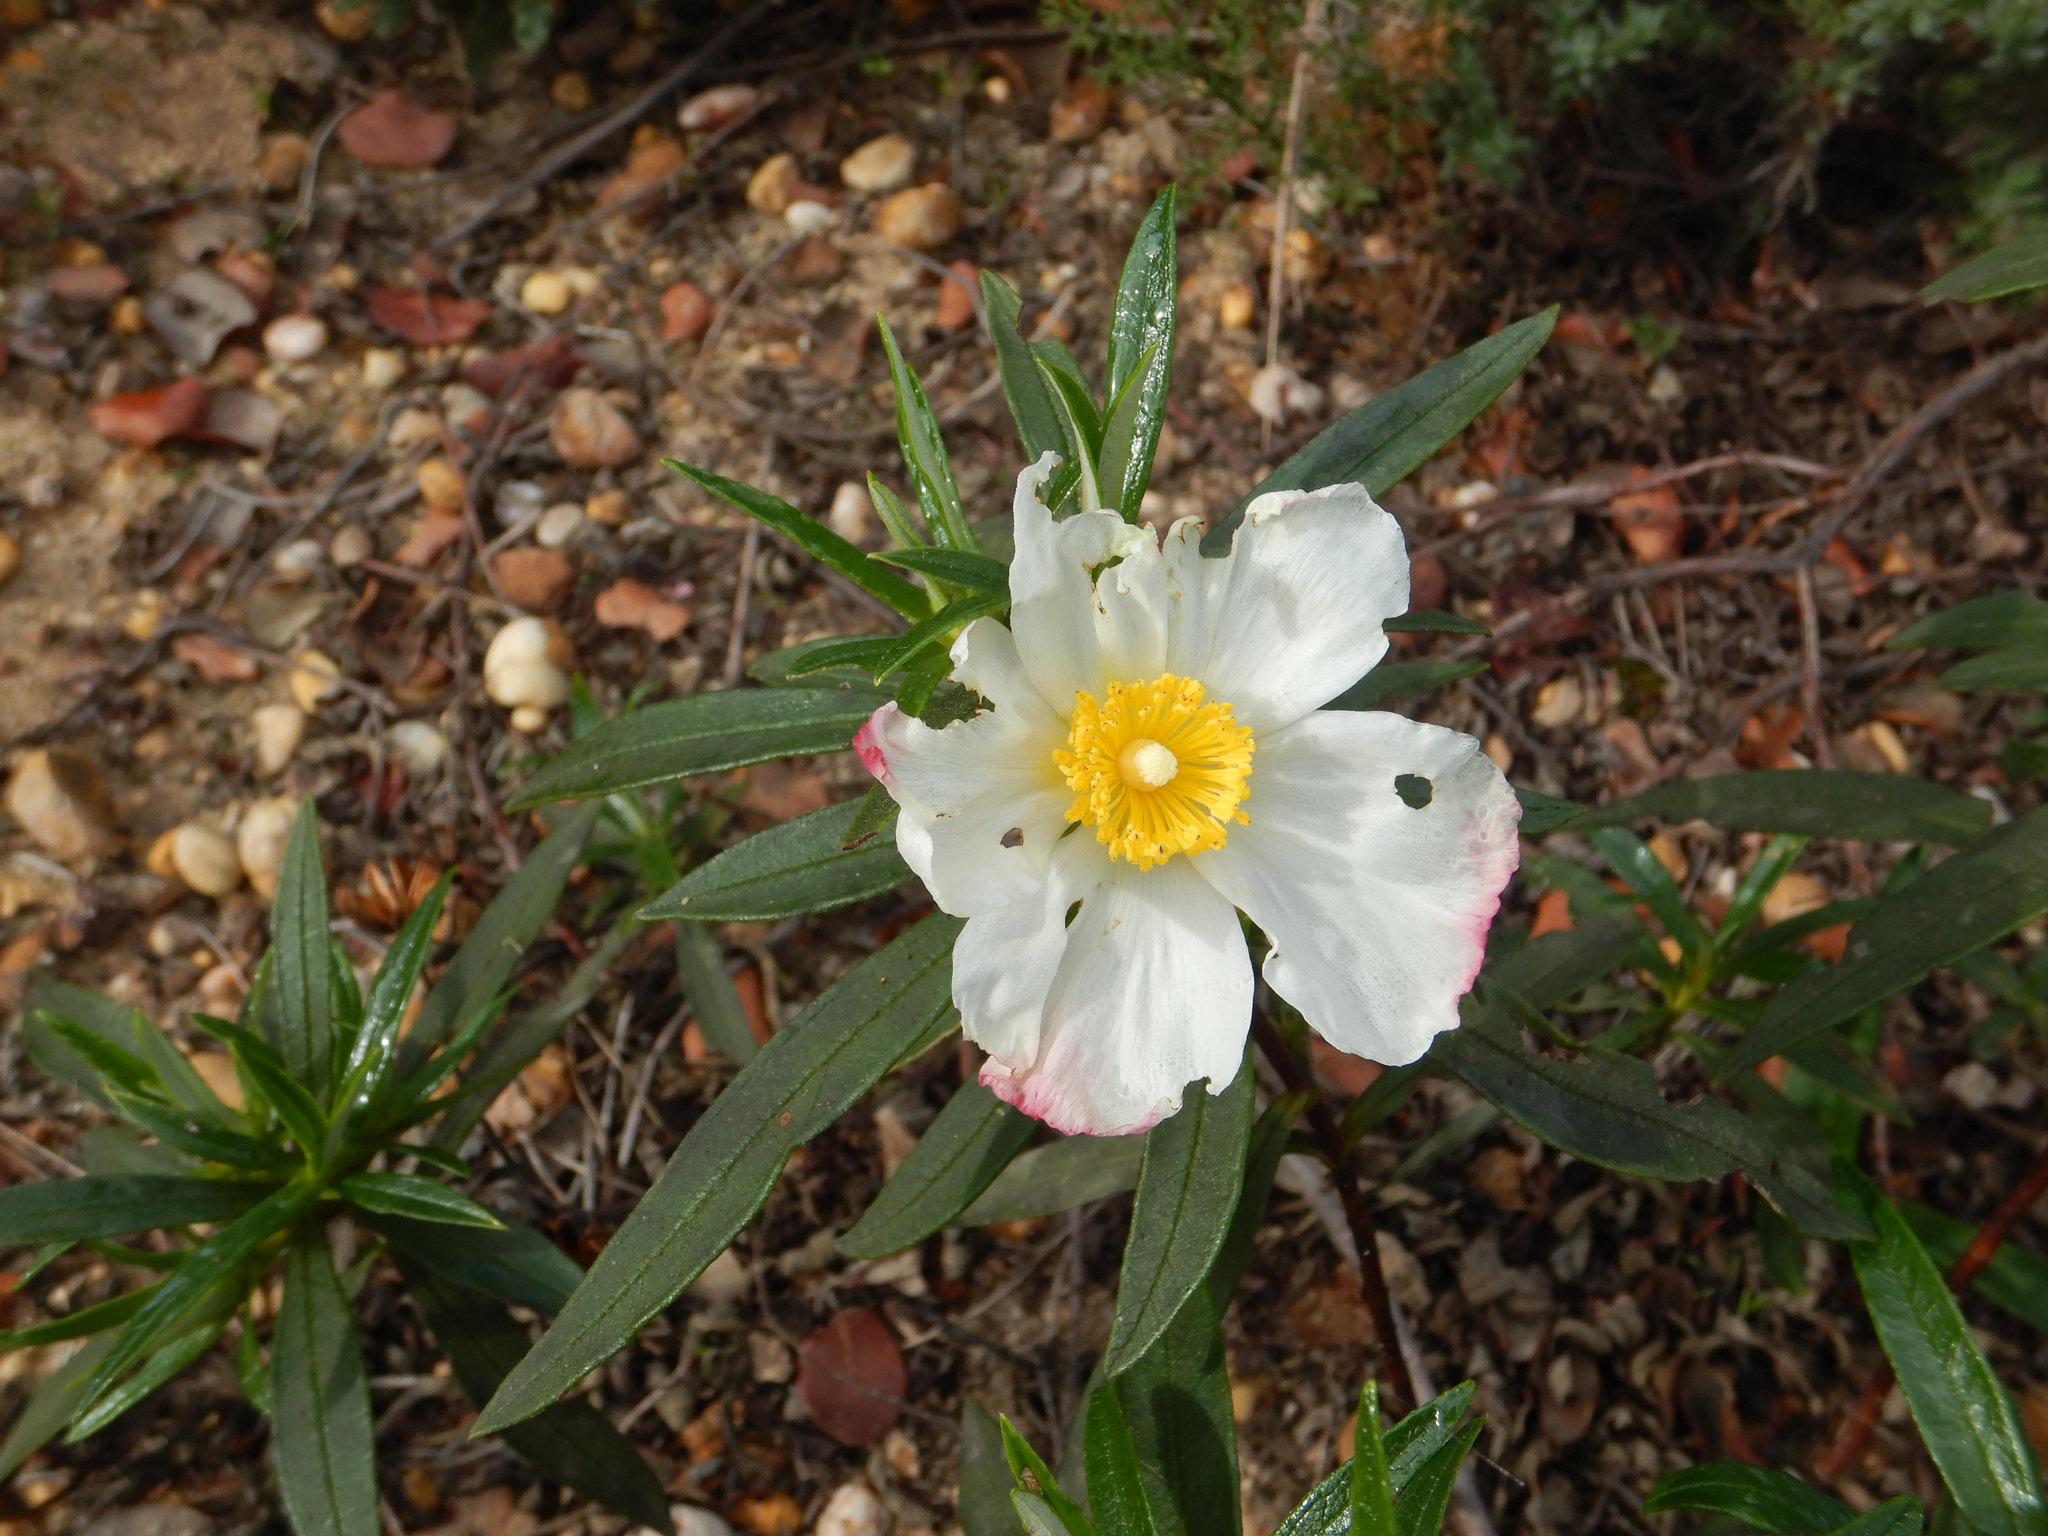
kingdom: Plantae
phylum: Tracheophyta
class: Magnoliopsida
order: Malvales
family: Cistaceae
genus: Cistus
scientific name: Cistus ladanifer
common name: Common gum cistus
